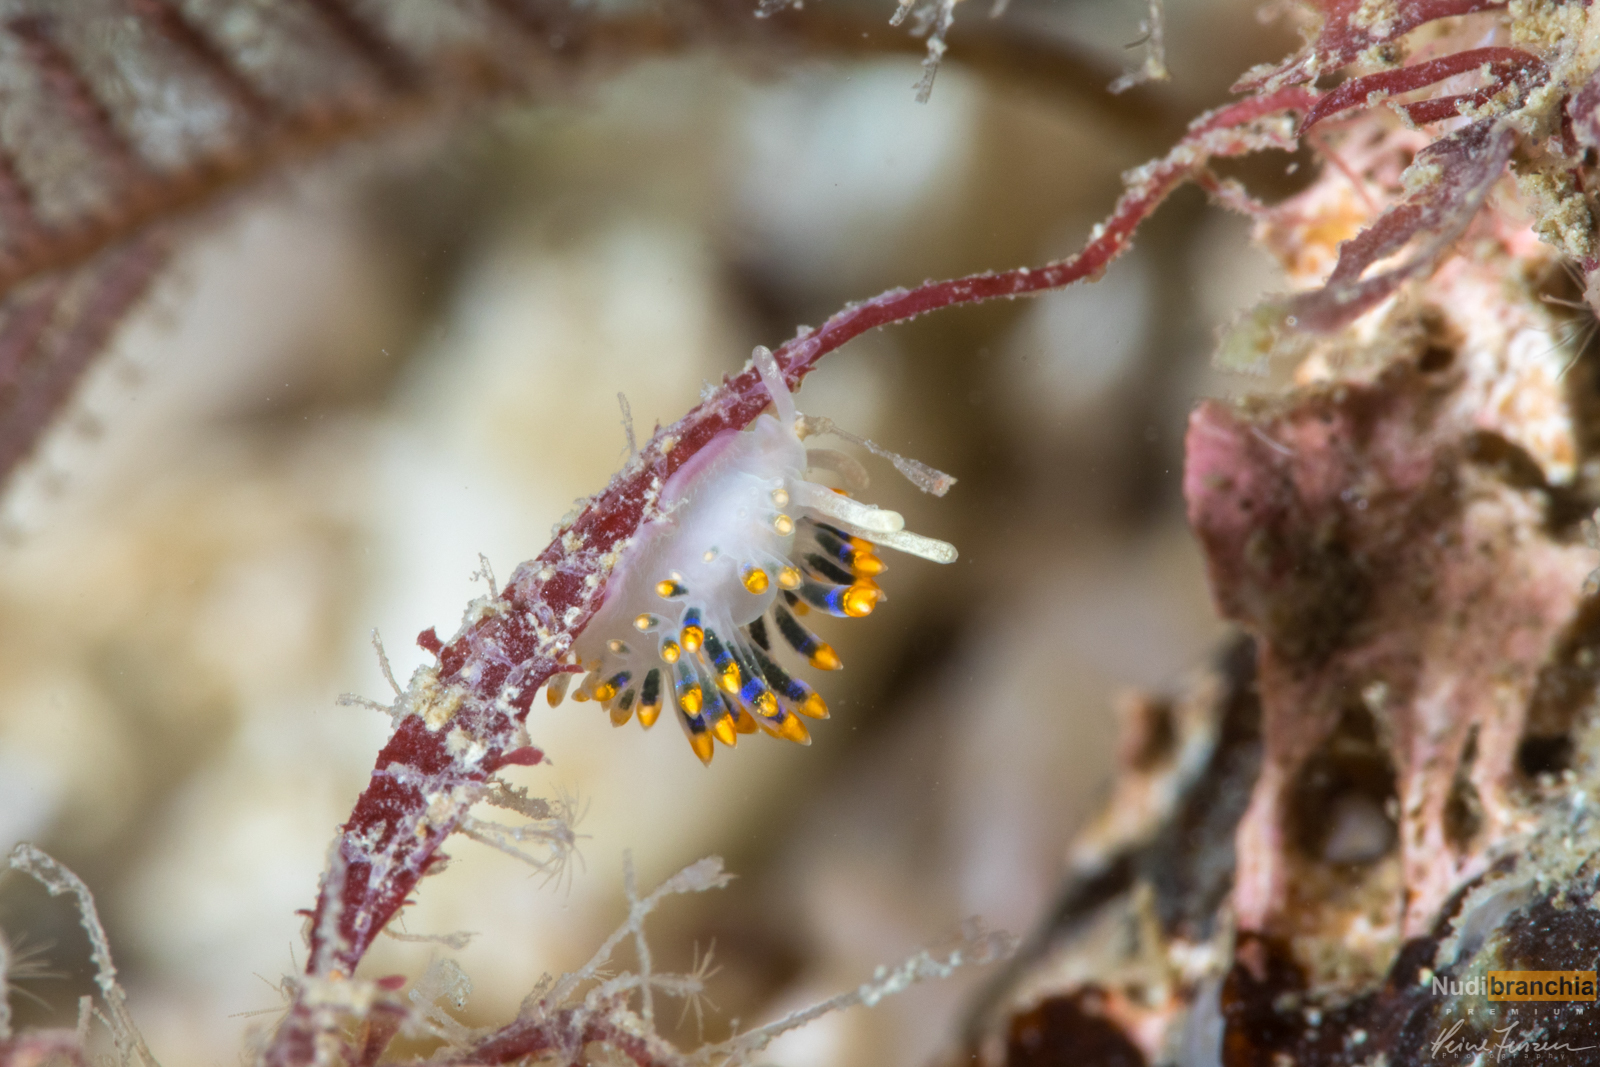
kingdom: Animalia
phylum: Mollusca
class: Gastropoda
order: Nudibranchia
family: Trinchesiidae
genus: Trinchesia
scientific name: Trinchesia cuanensis
